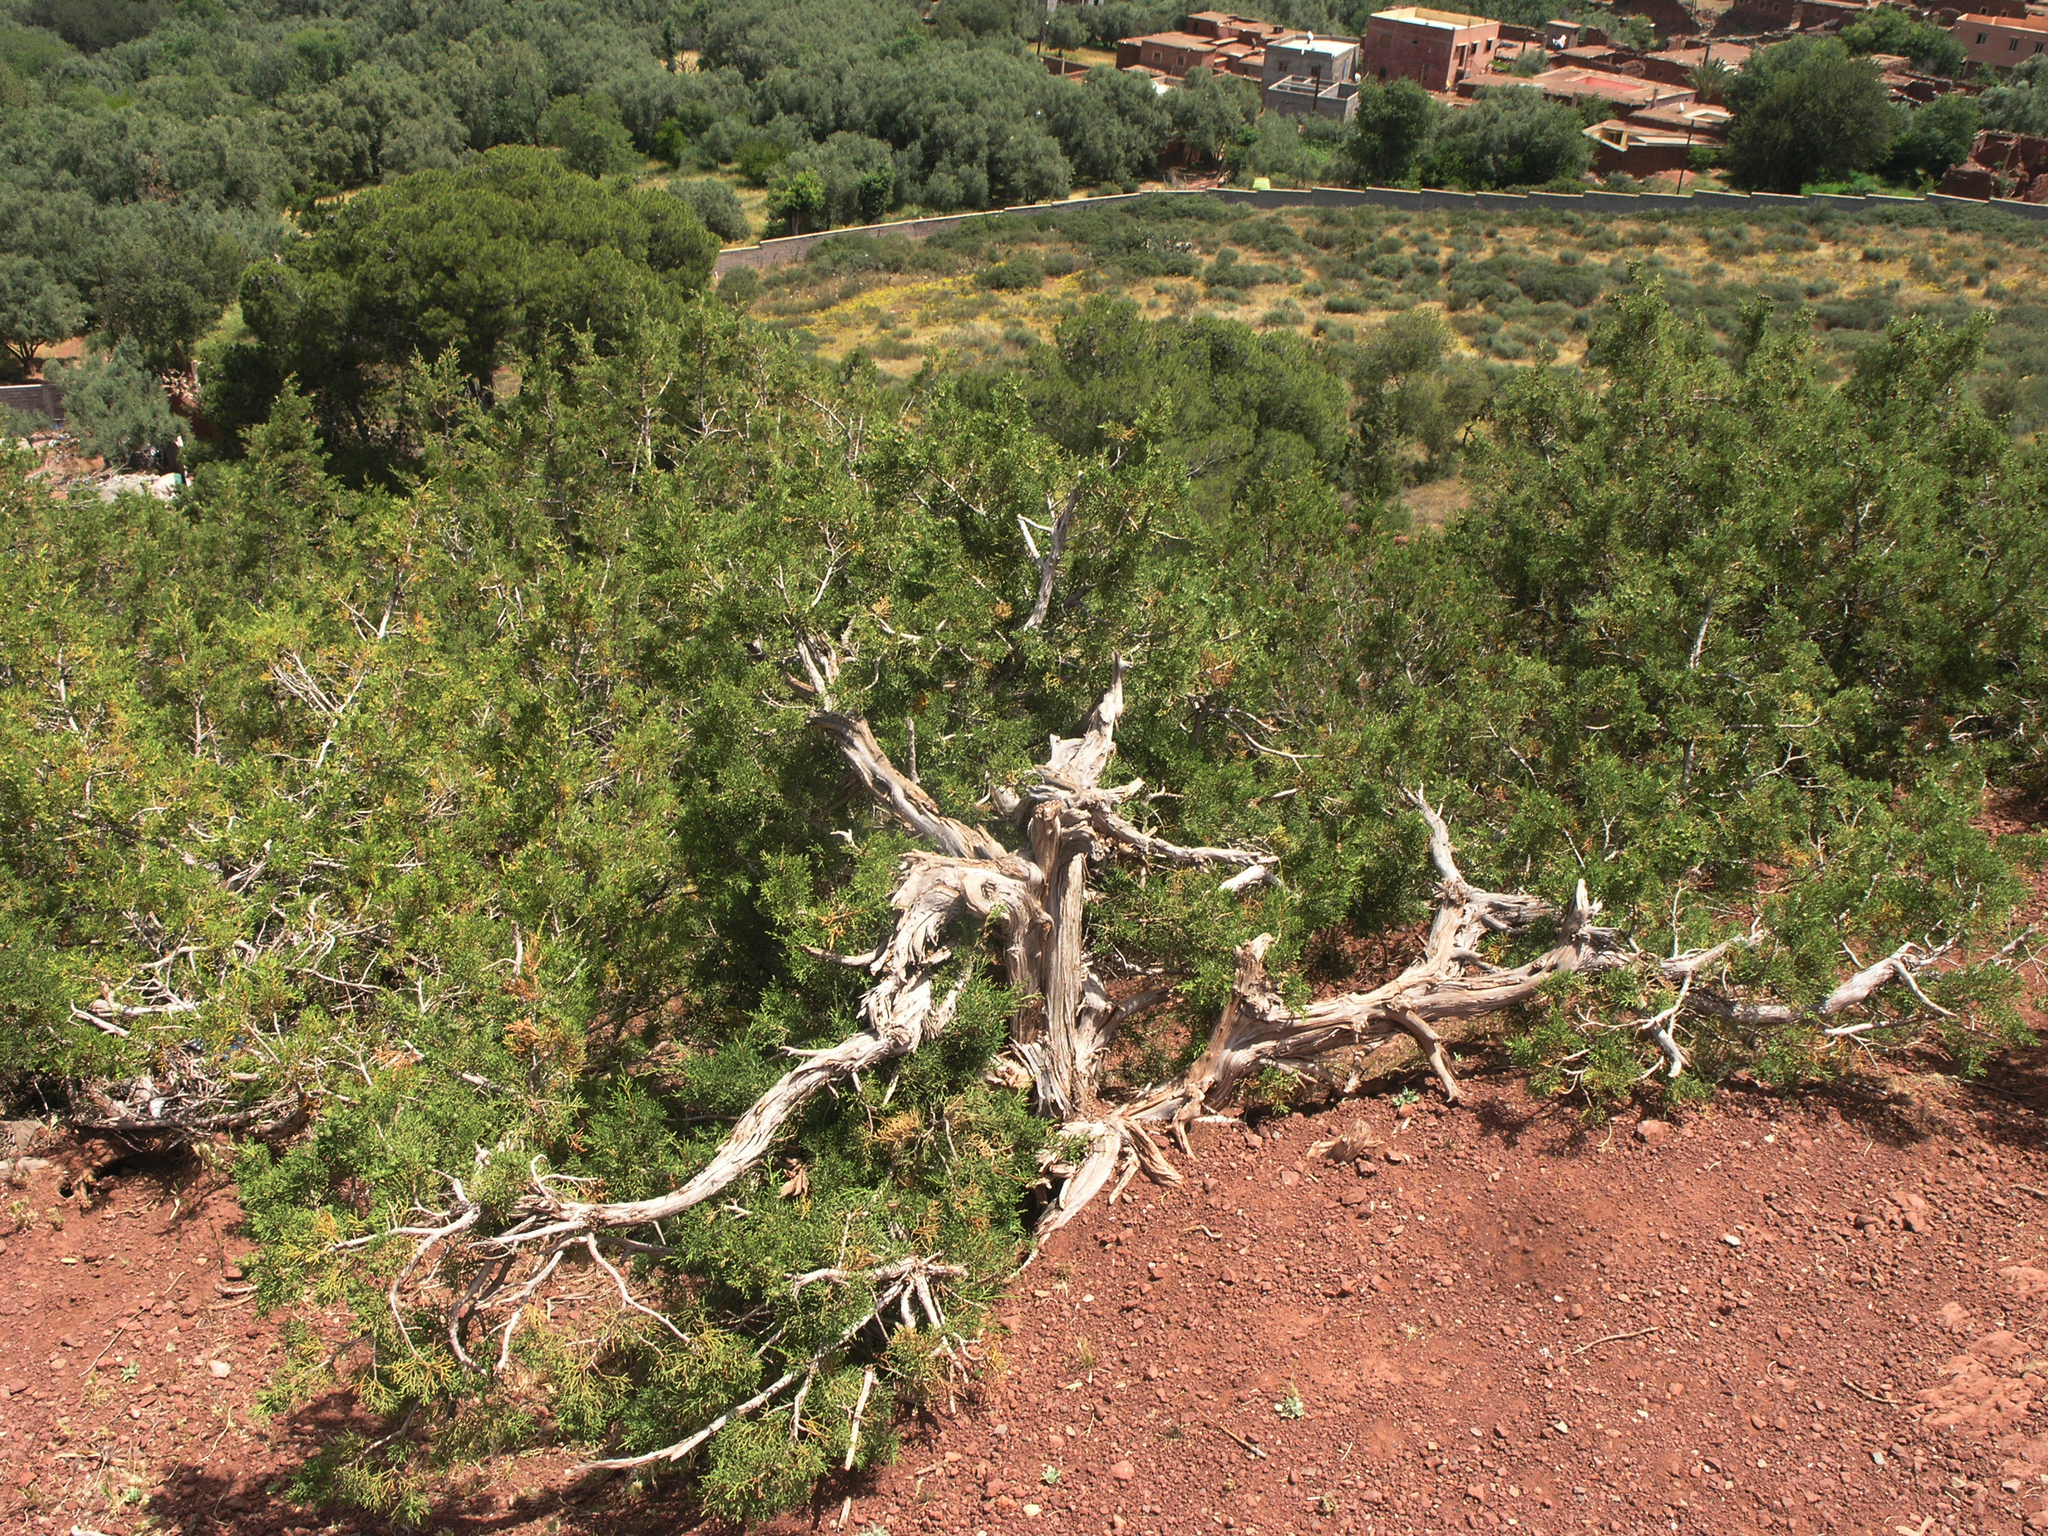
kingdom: Plantae
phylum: Tracheophyta
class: Pinopsida
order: Pinales
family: Cupressaceae
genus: Juniperus
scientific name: Juniperus phoenicea
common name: Phoenician juniper
